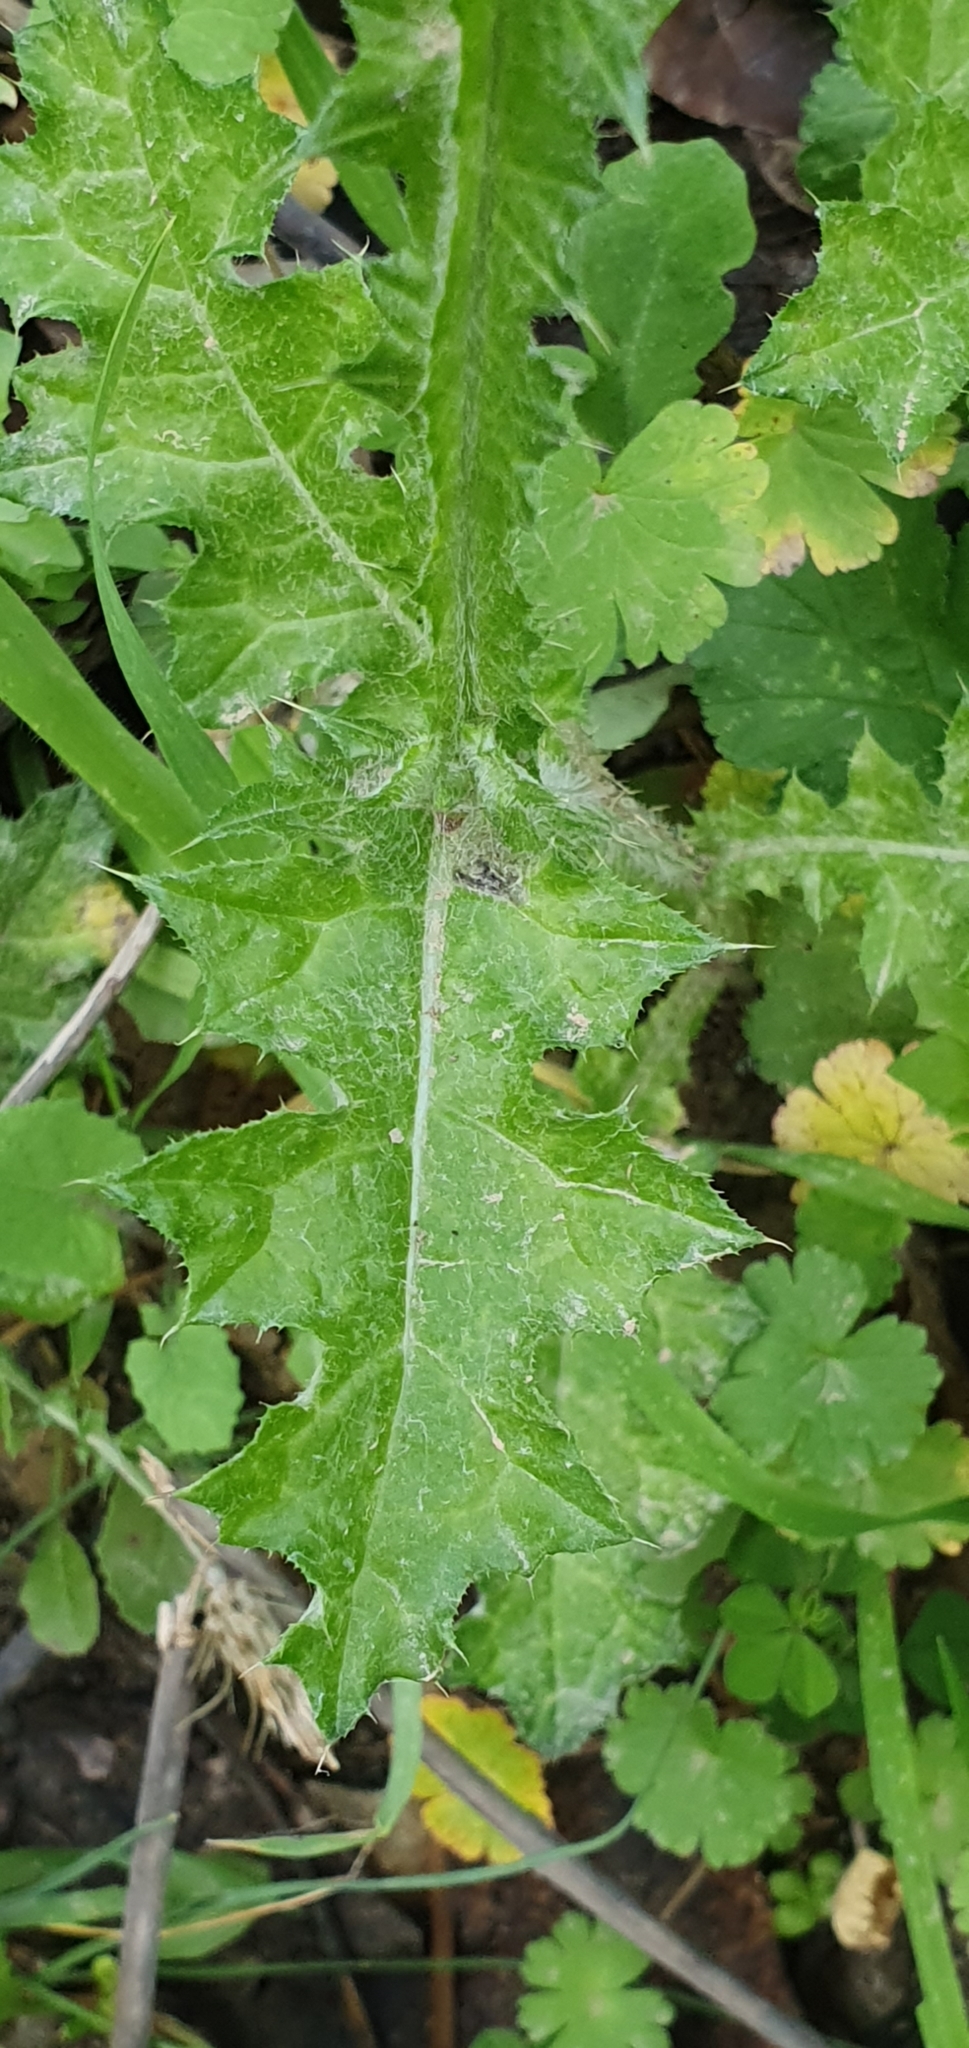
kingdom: Plantae
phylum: Tracheophyta
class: Magnoliopsida
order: Asterales
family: Asteraceae
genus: Carduus
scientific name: Carduus pycnocephalus
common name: Plymouth thistle
